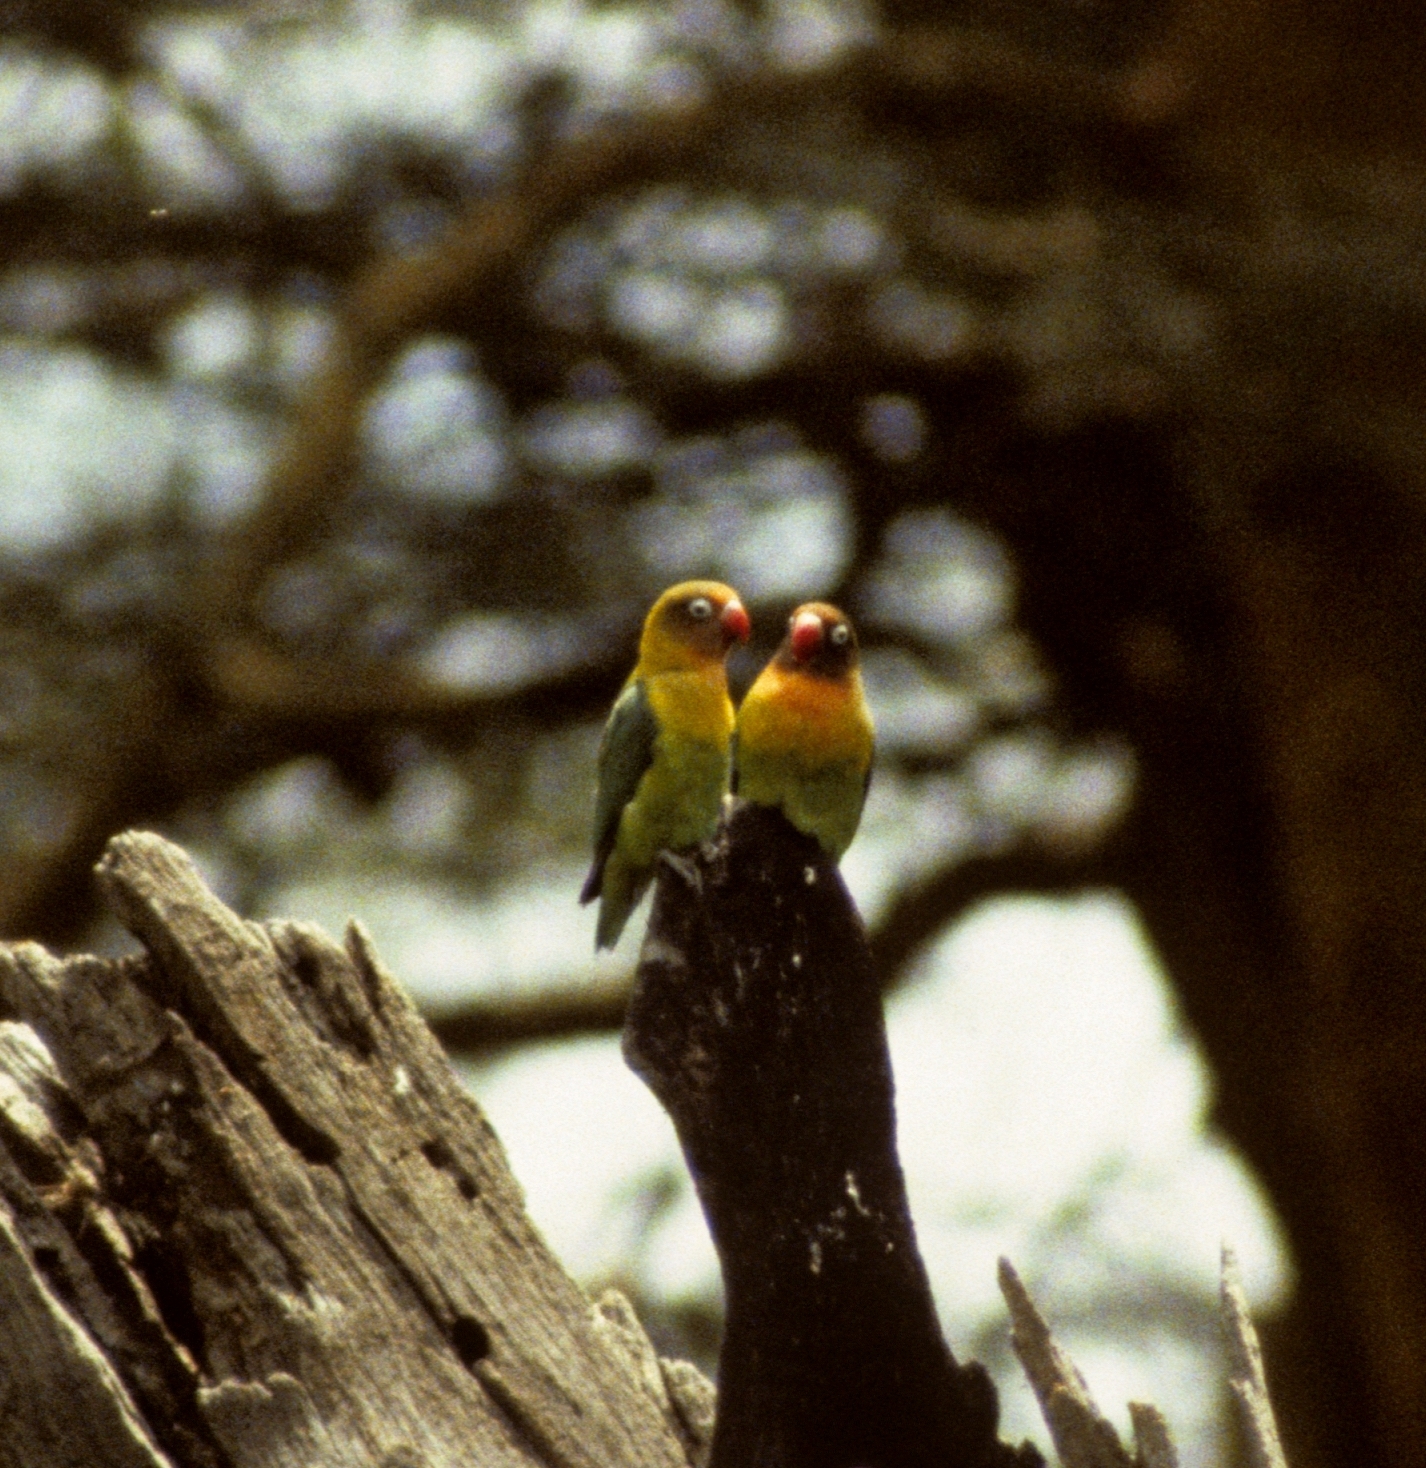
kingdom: Animalia
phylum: Chordata
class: Aves
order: Psittaciformes
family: Psittacidae
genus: Agapornis
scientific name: Agapornis
